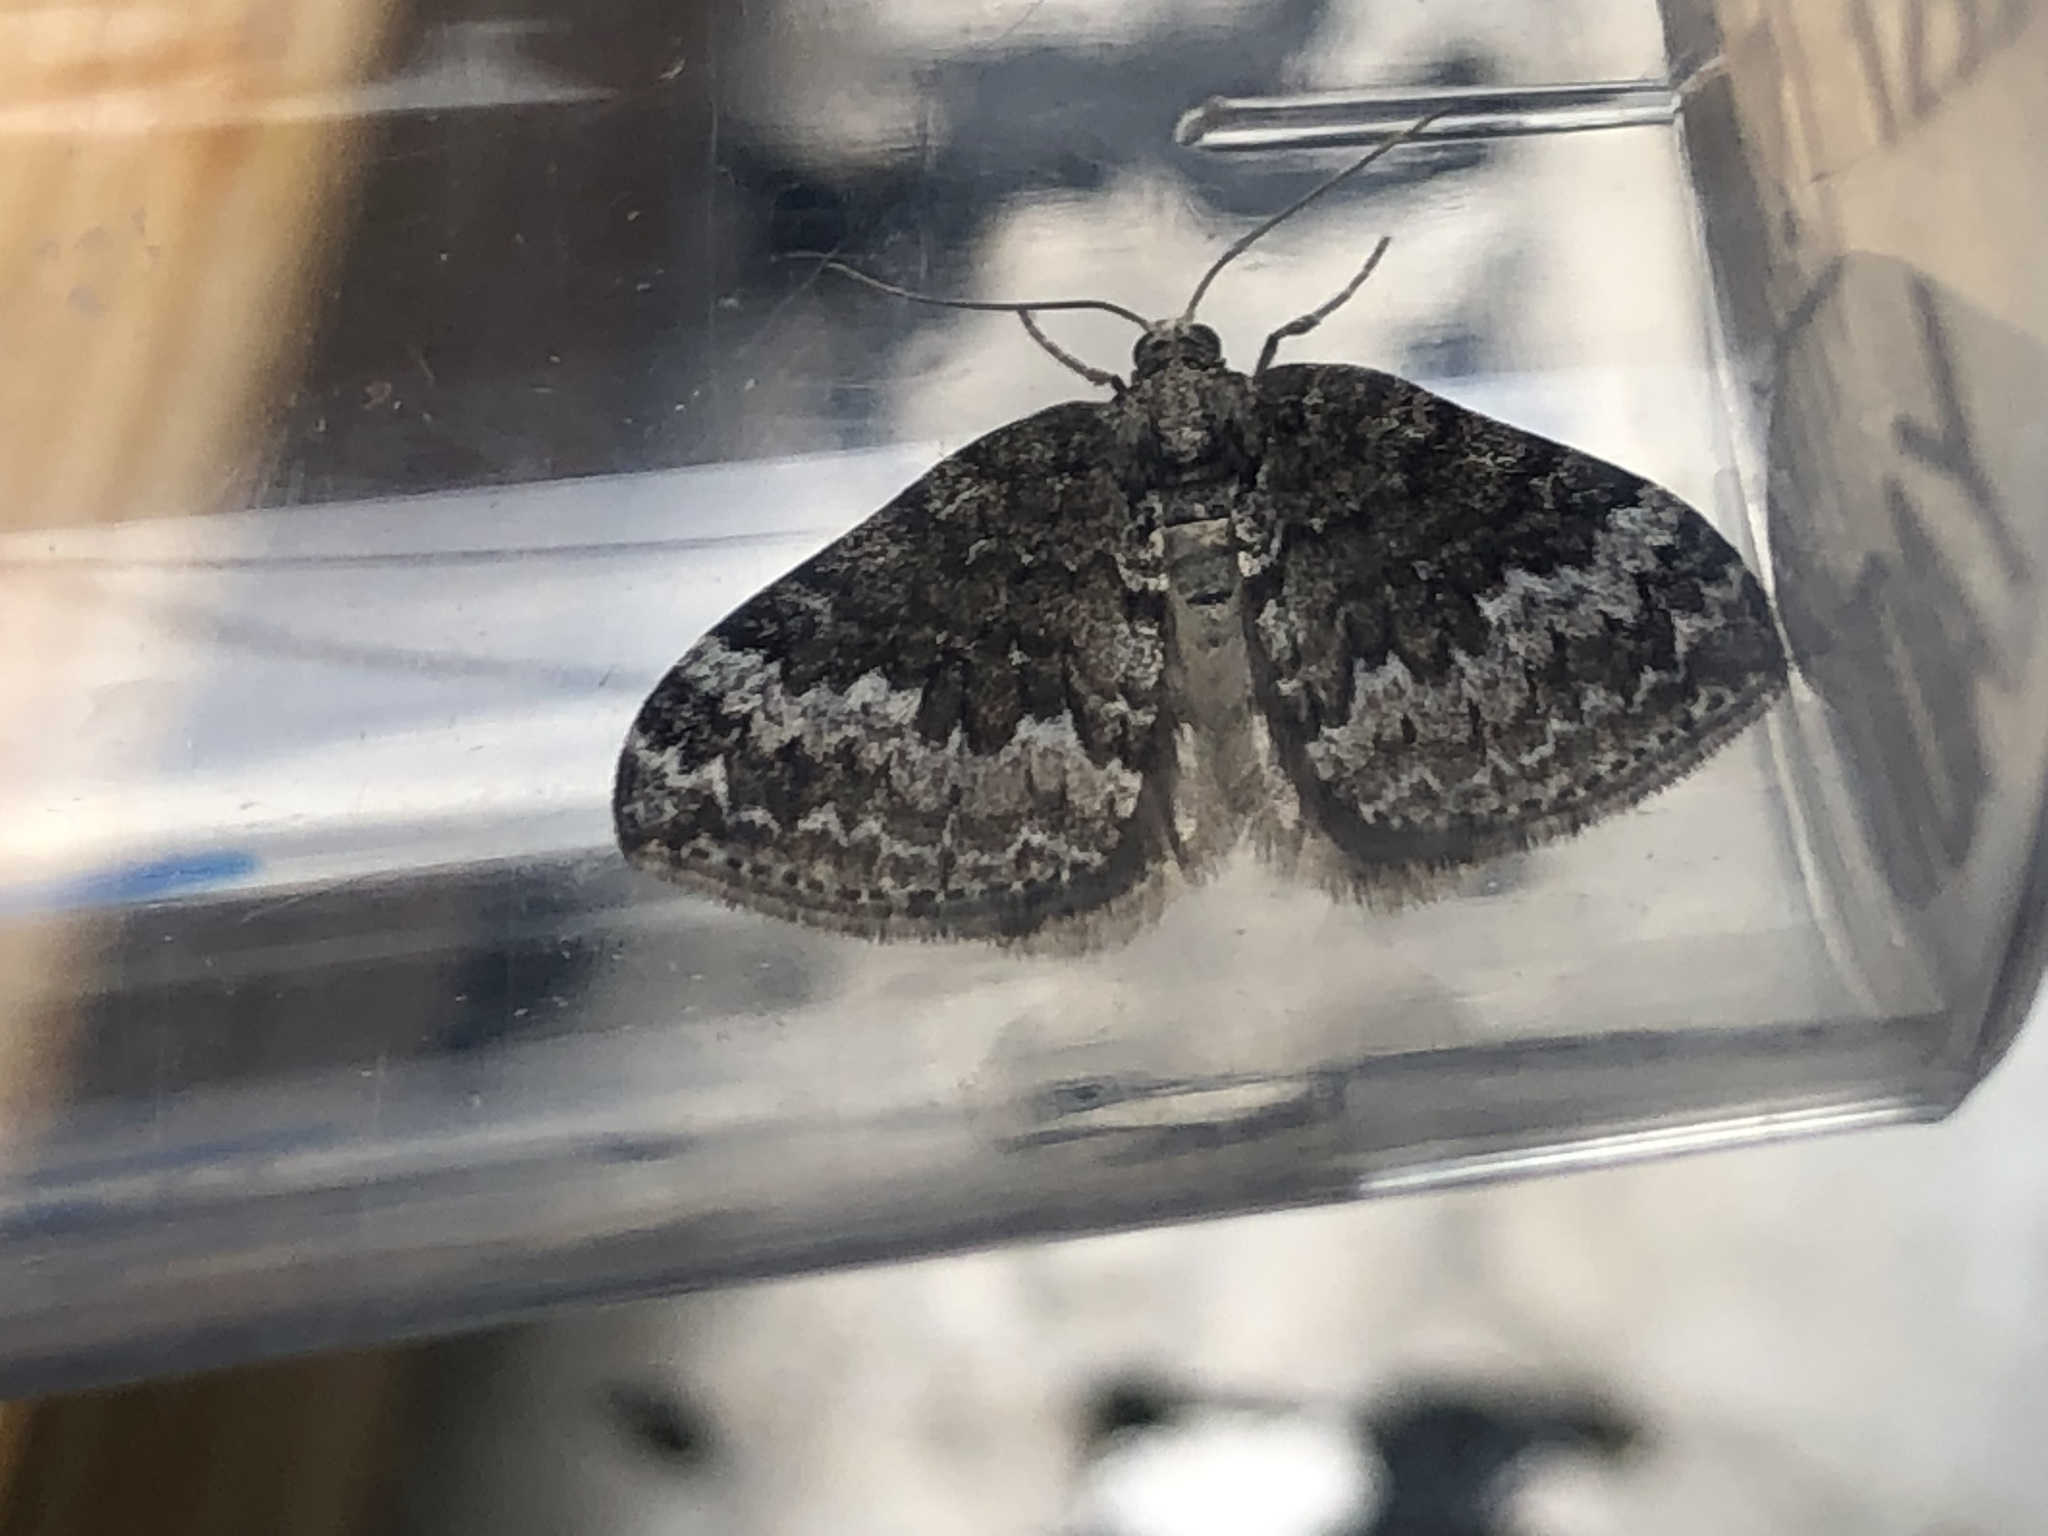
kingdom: Animalia
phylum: Arthropoda
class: Insecta
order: Lepidoptera
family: Geometridae
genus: Perizoma
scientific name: Perizoma hydrata
